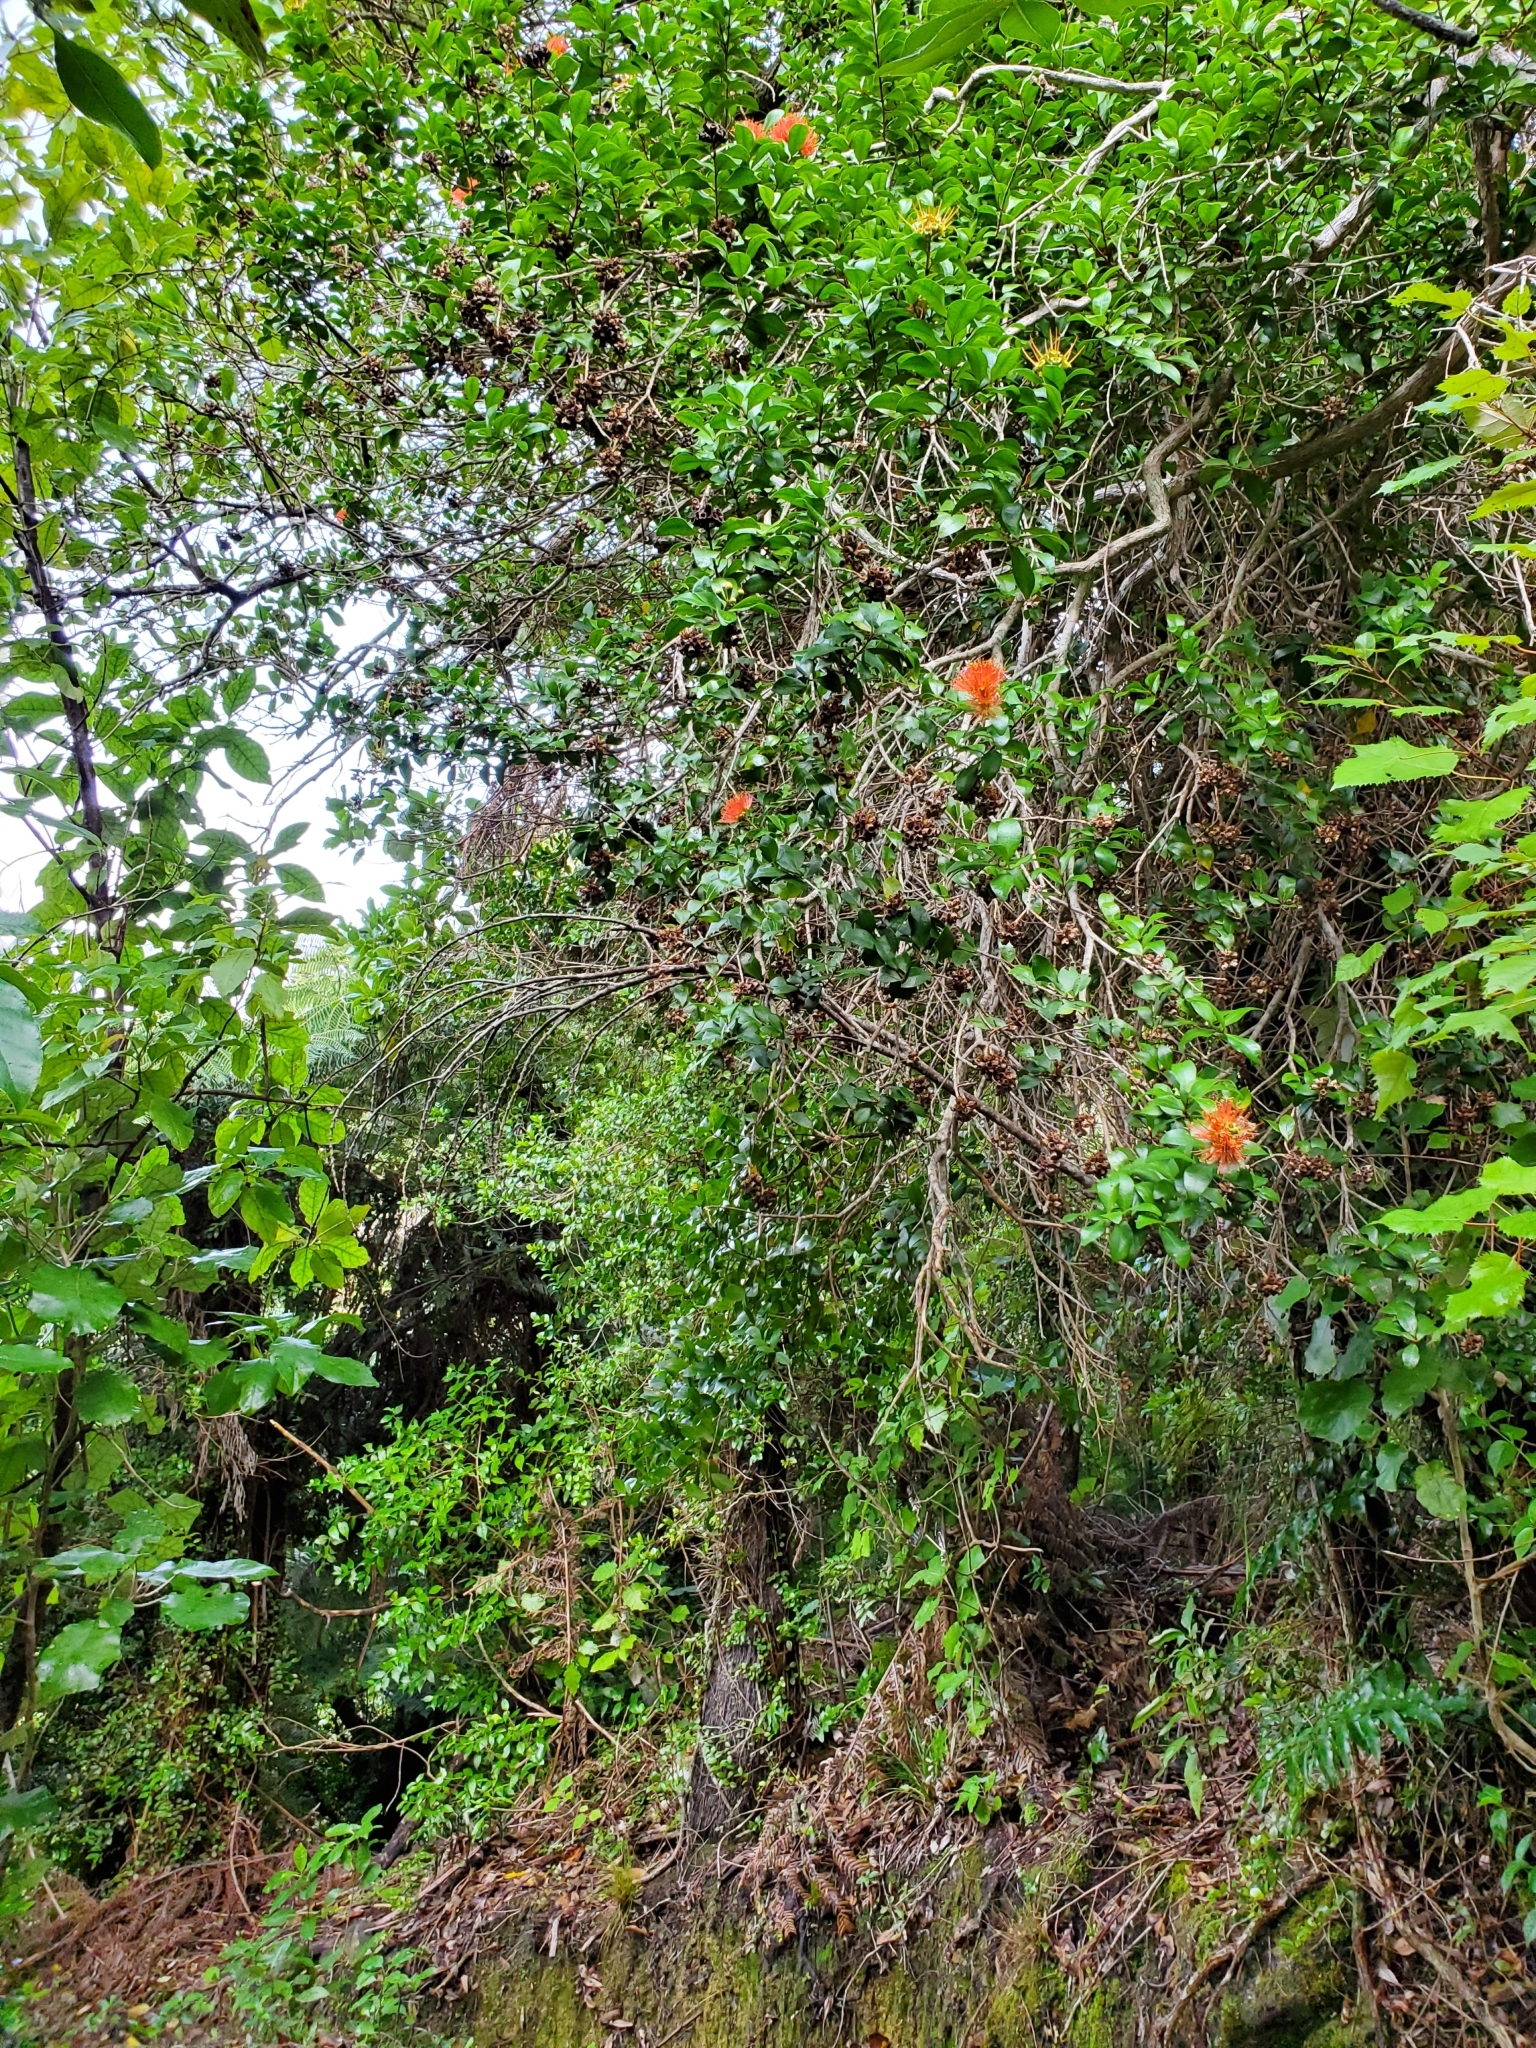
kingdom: Plantae
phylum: Tracheophyta
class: Magnoliopsida
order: Myrtales
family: Myrtaceae
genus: Metrosideros
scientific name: Metrosideros fulgens
